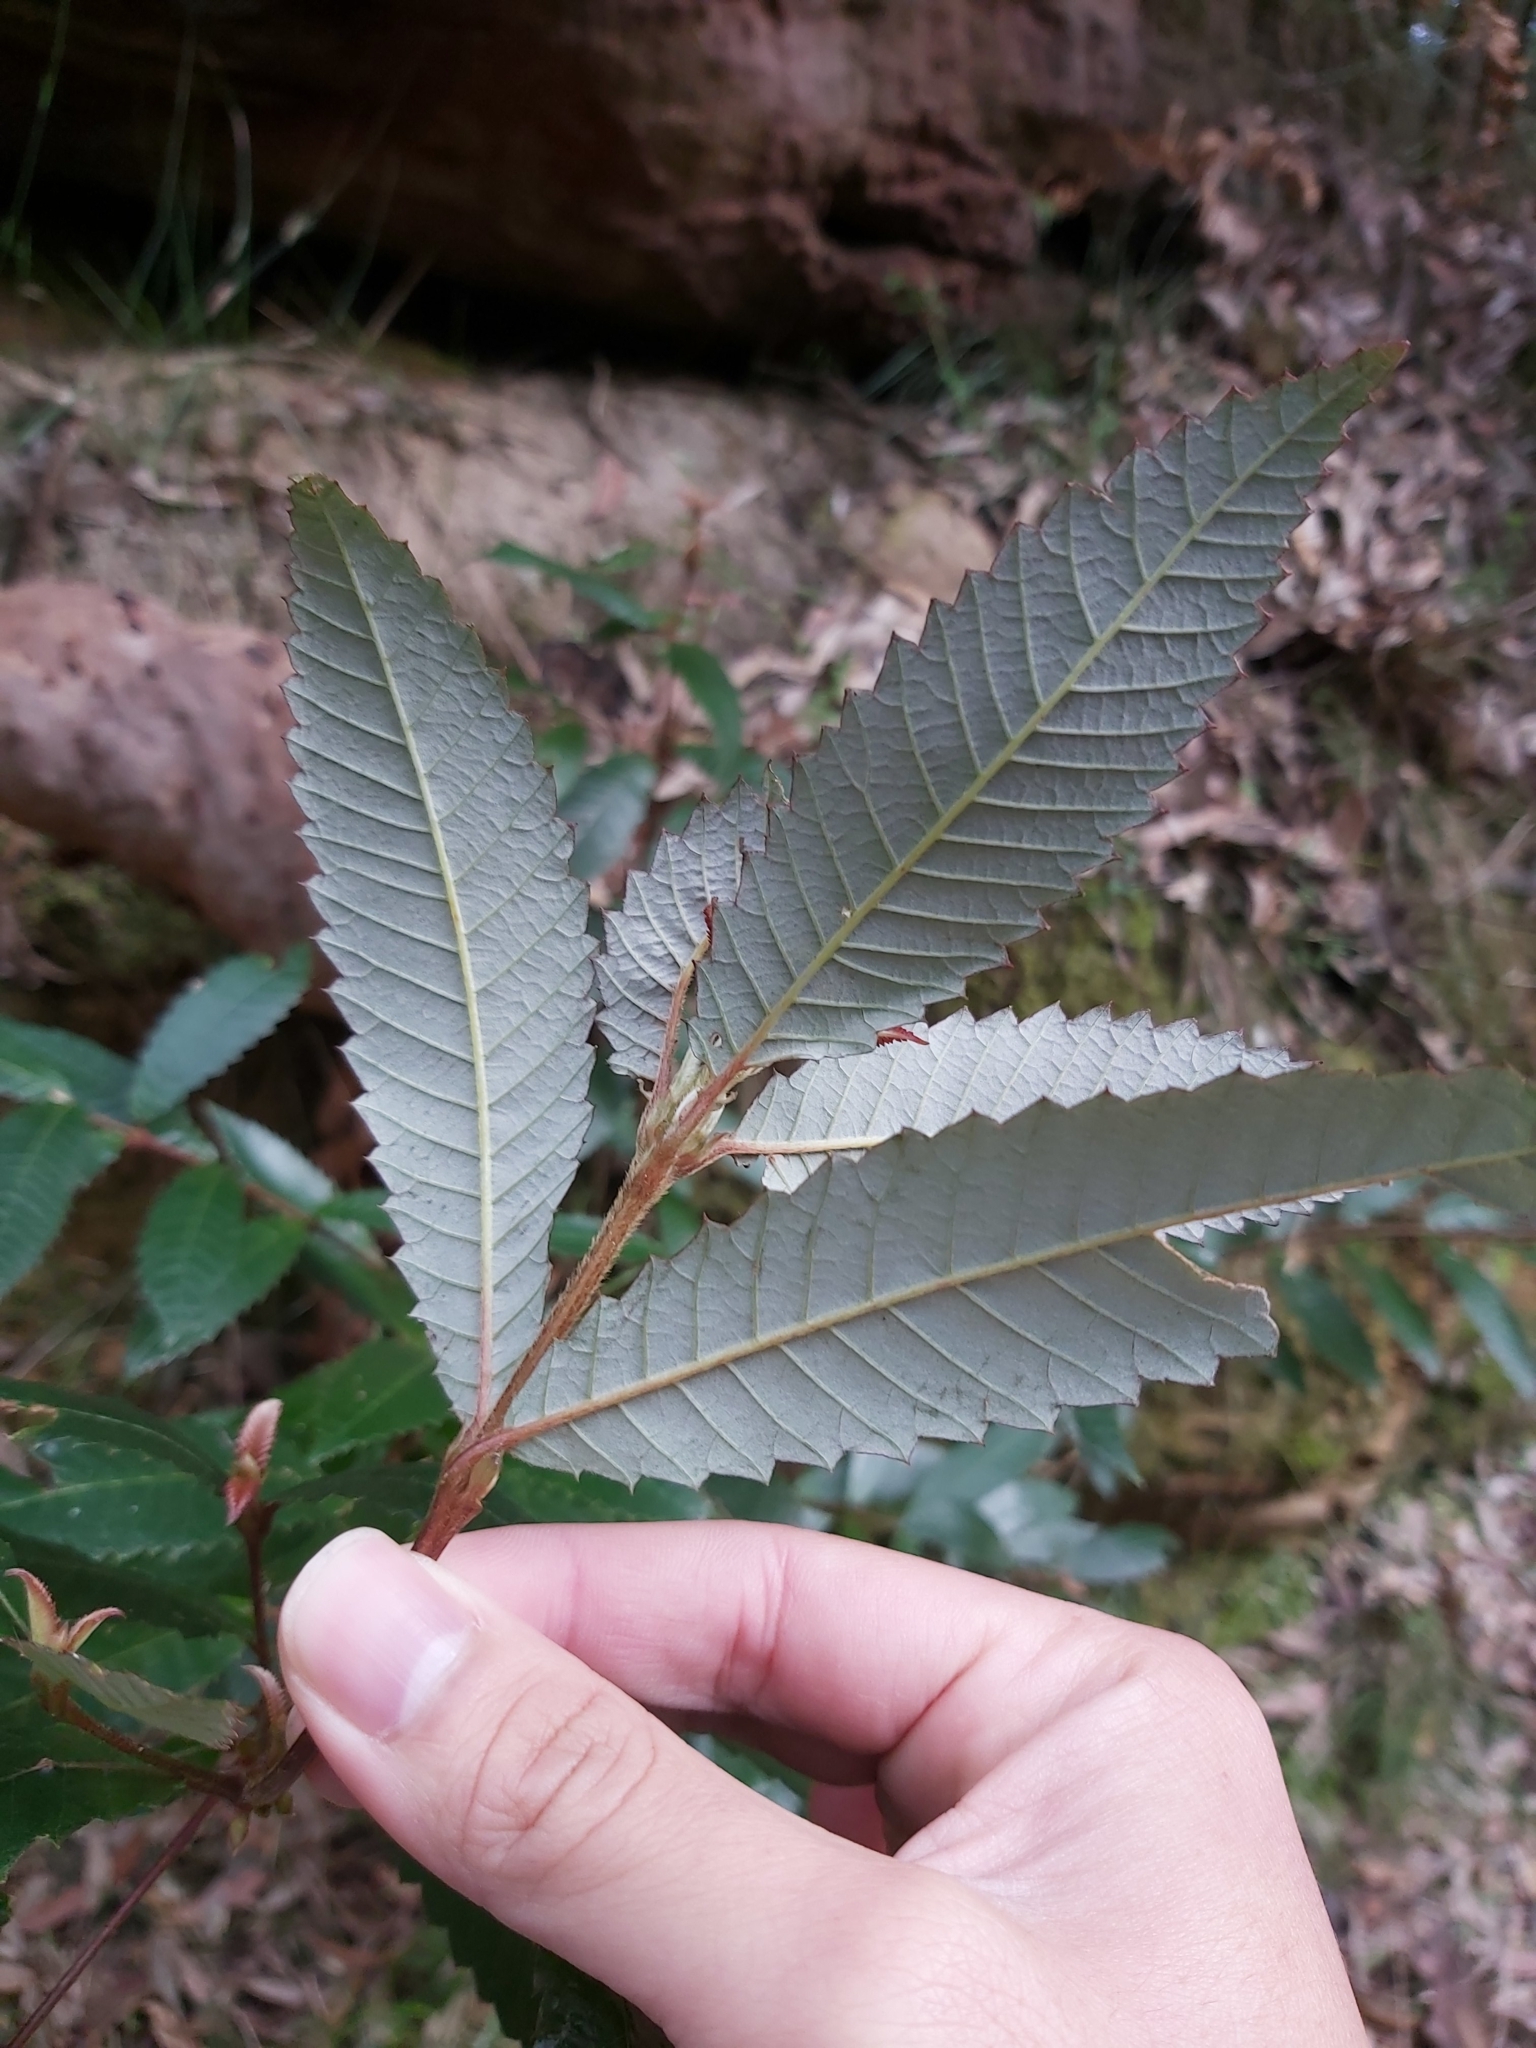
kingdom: Plantae
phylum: Tracheophyta
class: Magnoliopsida
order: Oxalidales
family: Cunoniaceae
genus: Callicoma
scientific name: Callicoma serratifolia
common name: Black wattle
